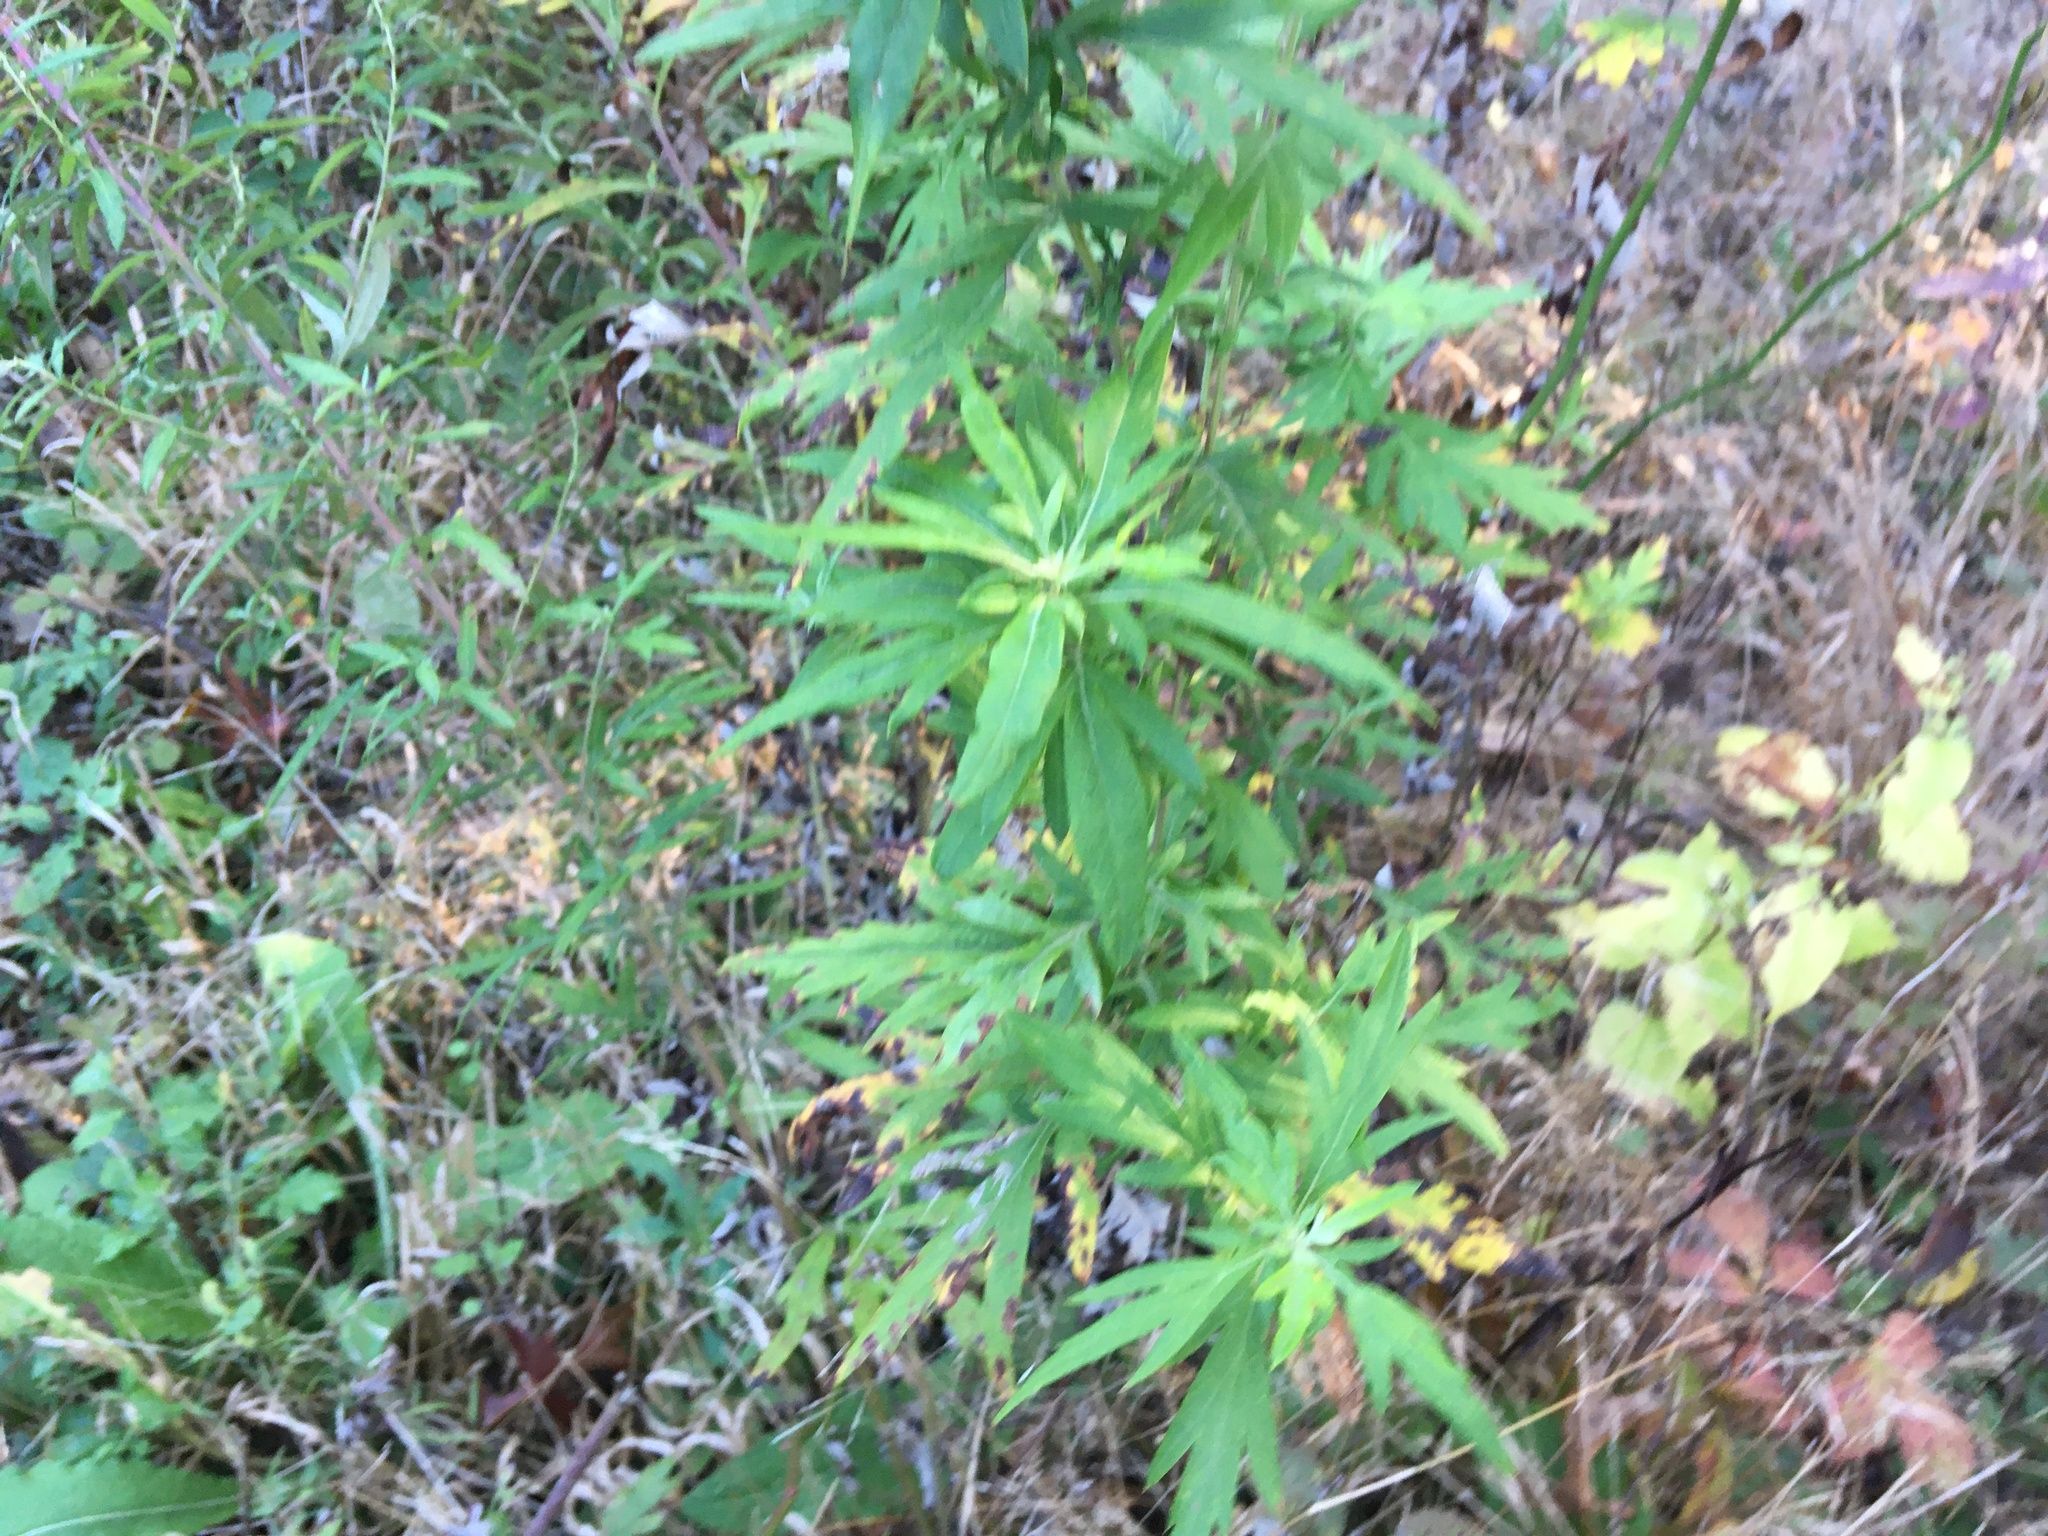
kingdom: Plantae
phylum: Tracheophyta
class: Magnoliopsida
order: Asterales
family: Asteraceae
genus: Artemisia
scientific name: Artemisia vulgaris
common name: Mugwort
